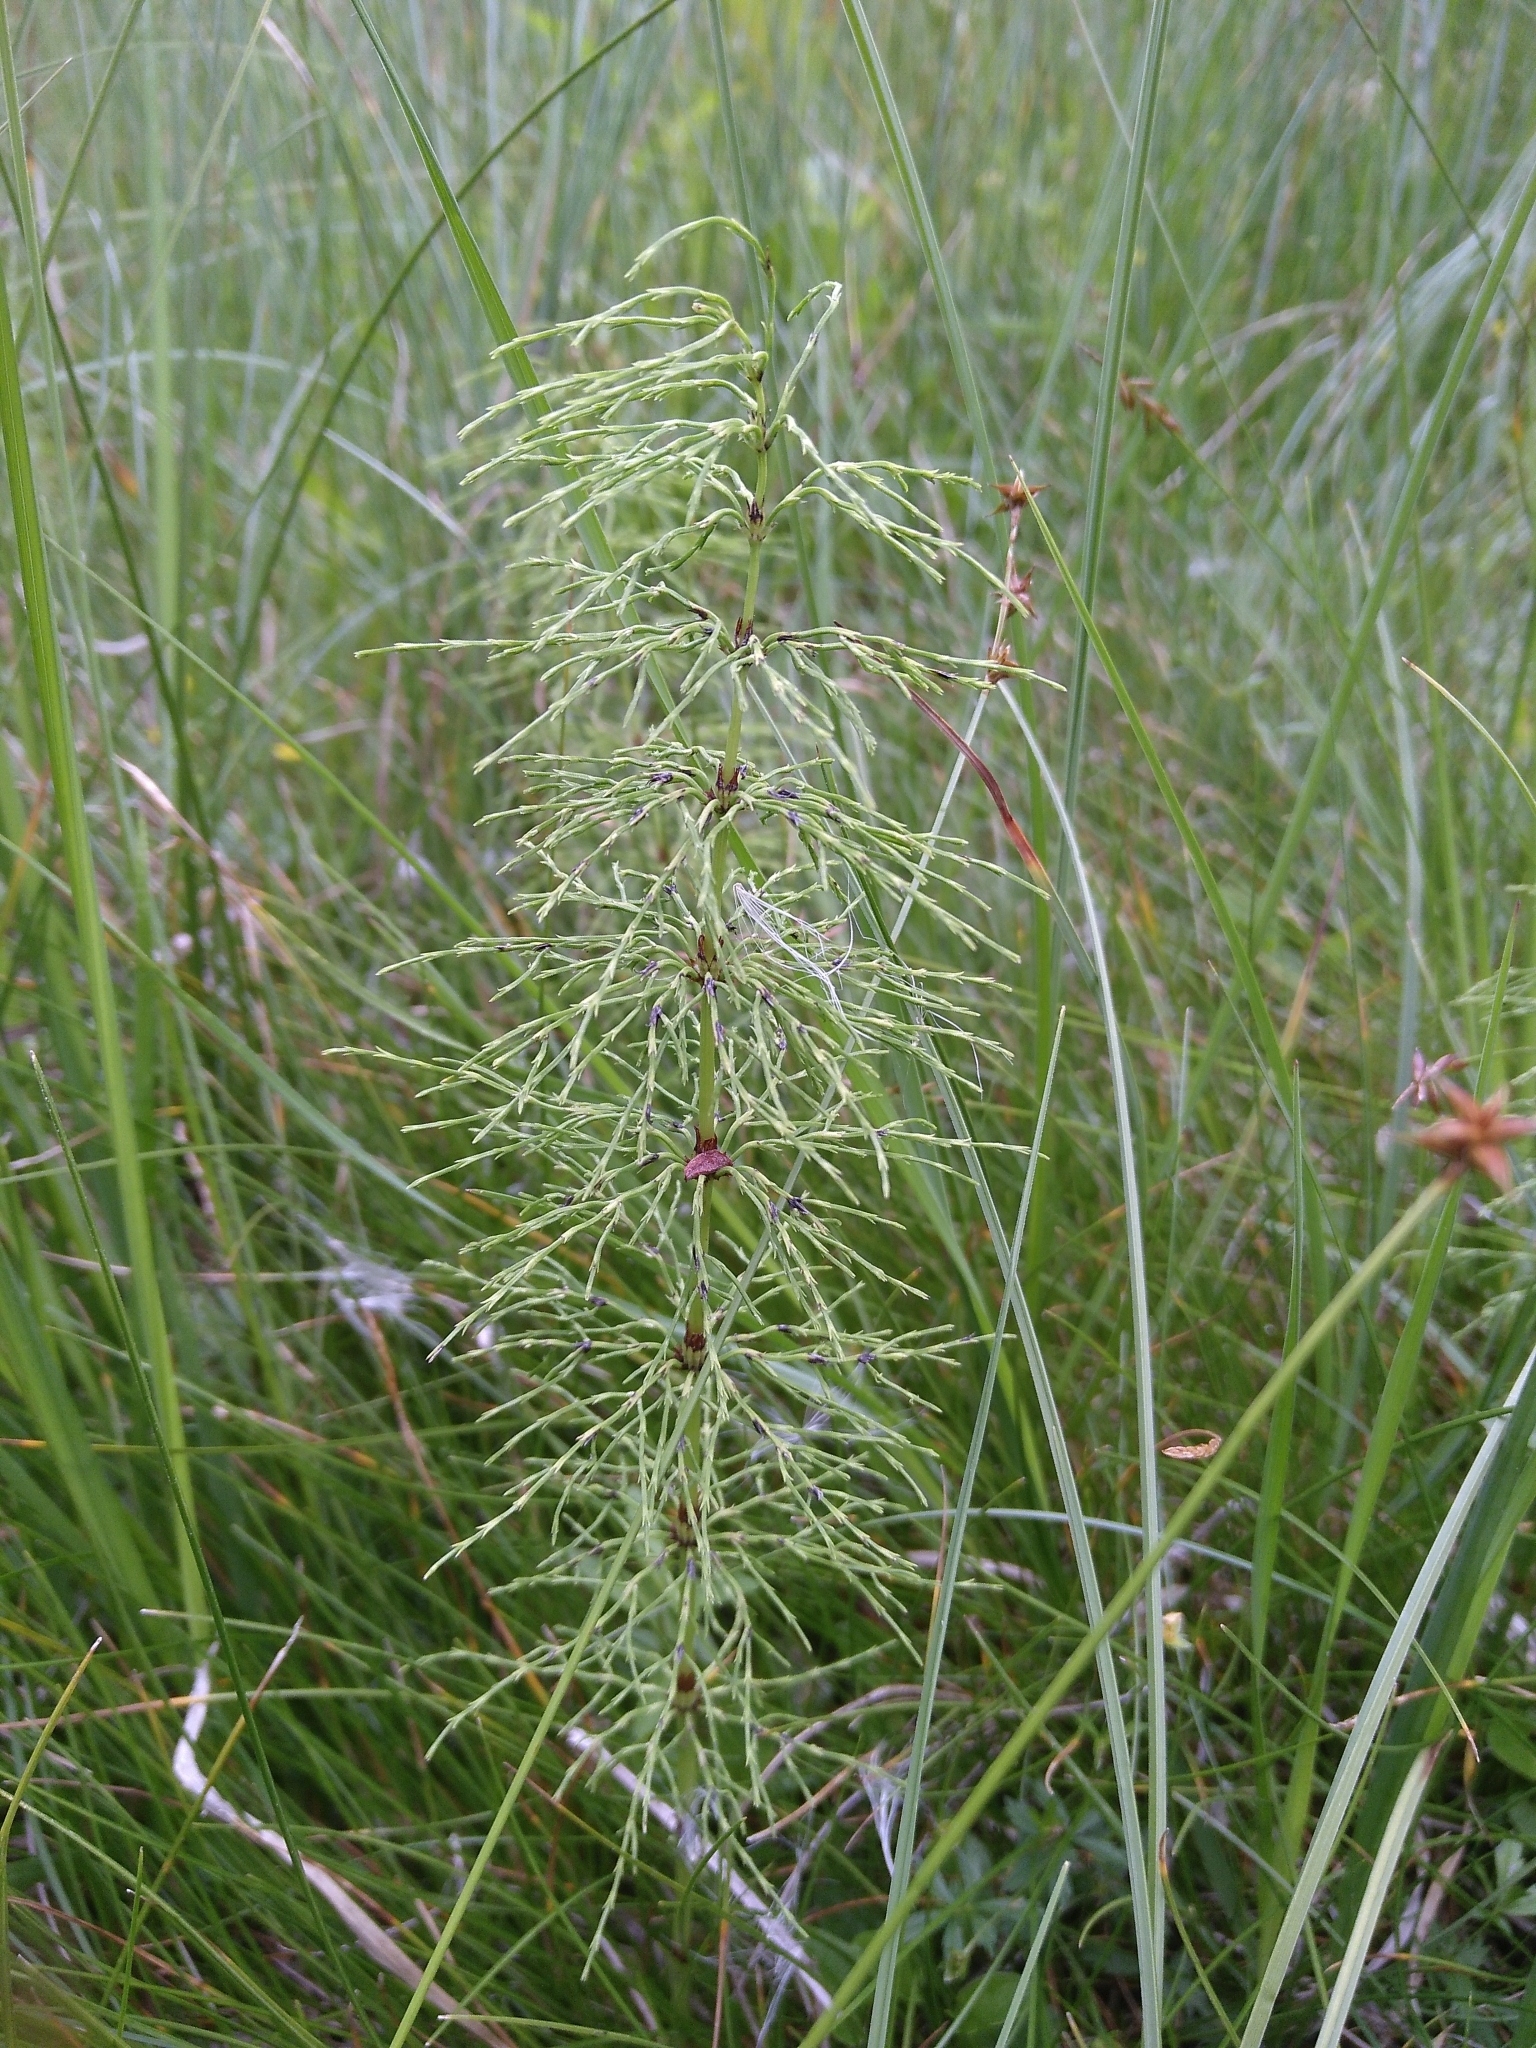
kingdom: Plantae
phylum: Tracheophyta
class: Polypodiopsida
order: Equisetales
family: Equisetaceae
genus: Equisetum
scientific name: Equisetum sylvaticum
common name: Wood horsetail
